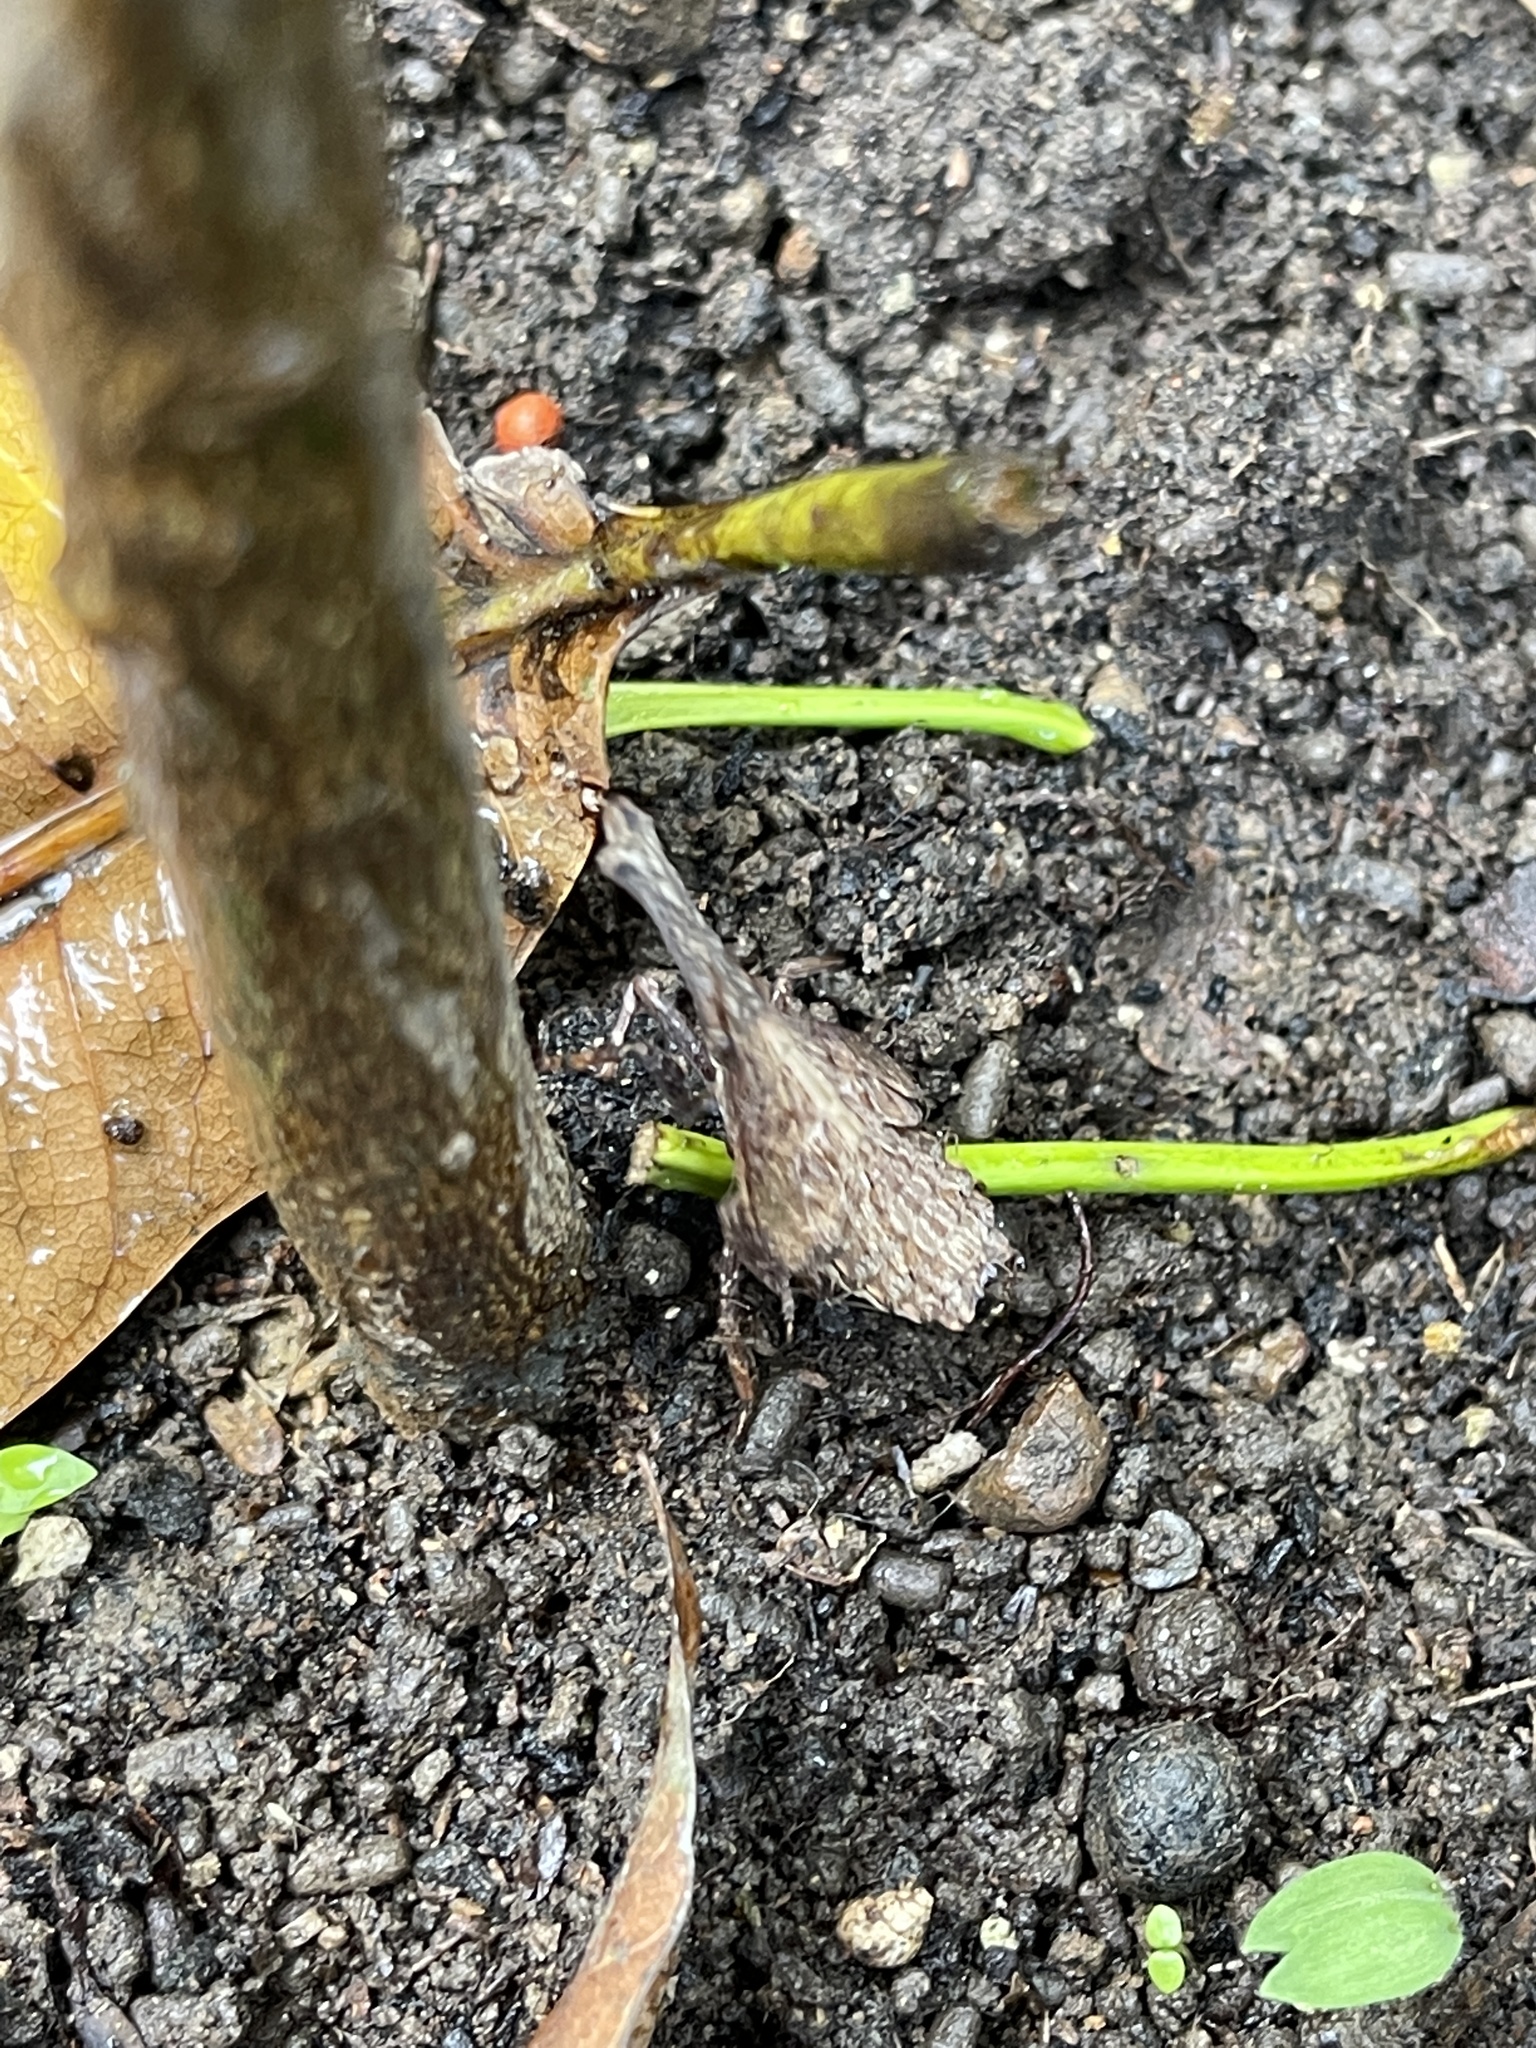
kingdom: Animalia
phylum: Arthropoda
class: Insecta
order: Hemiptera
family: Fulgoridae
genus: Pyrops
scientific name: Pyrops watanabei
